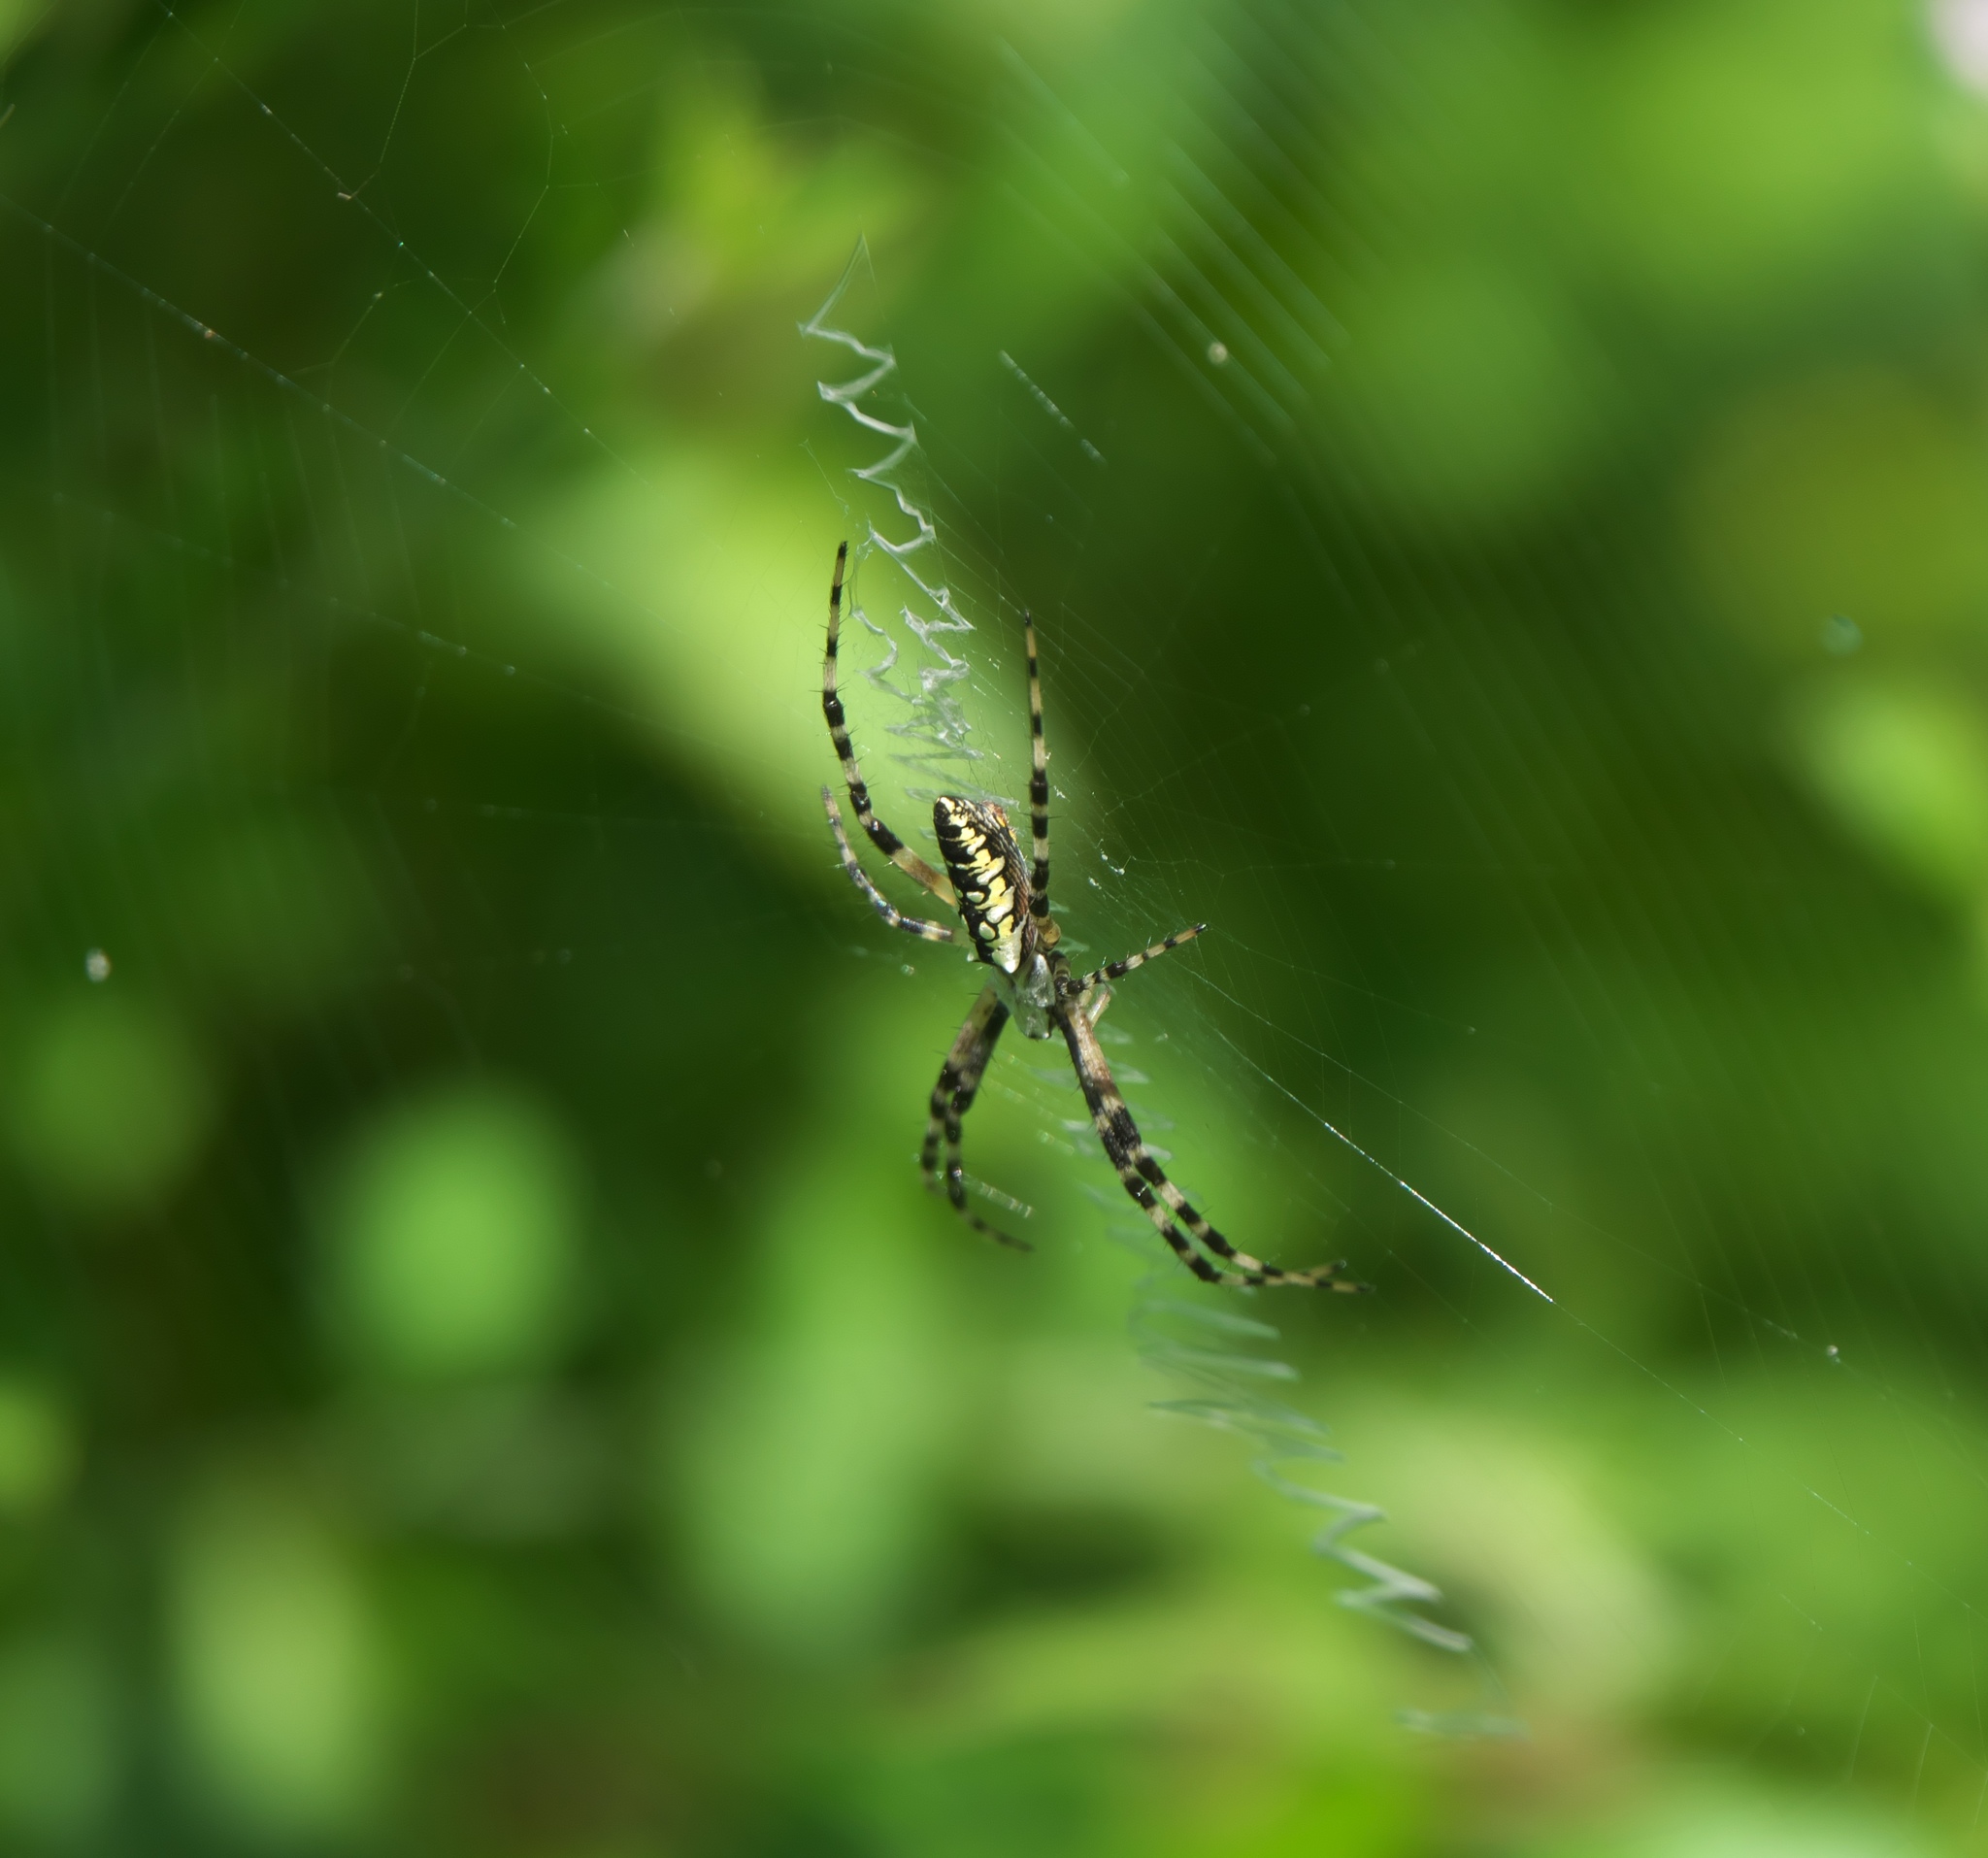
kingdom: Animalia
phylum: Arthropoda
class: Arachnida
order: Araneae
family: Araneidae
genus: Argiope
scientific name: Argiope aurantia
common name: Orb weavers
